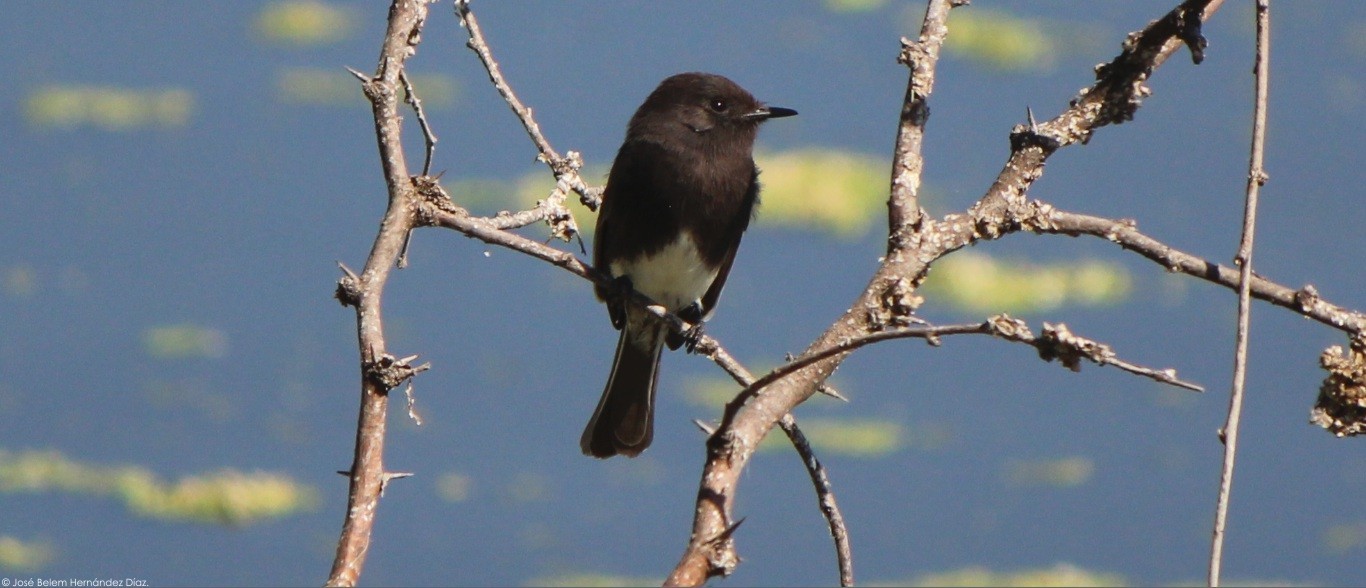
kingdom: Animalia
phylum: Chordata
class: Aves
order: Passeriformes
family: Tyrannidae
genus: Sayornis
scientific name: Sayornis nigricans
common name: Black phoebe
